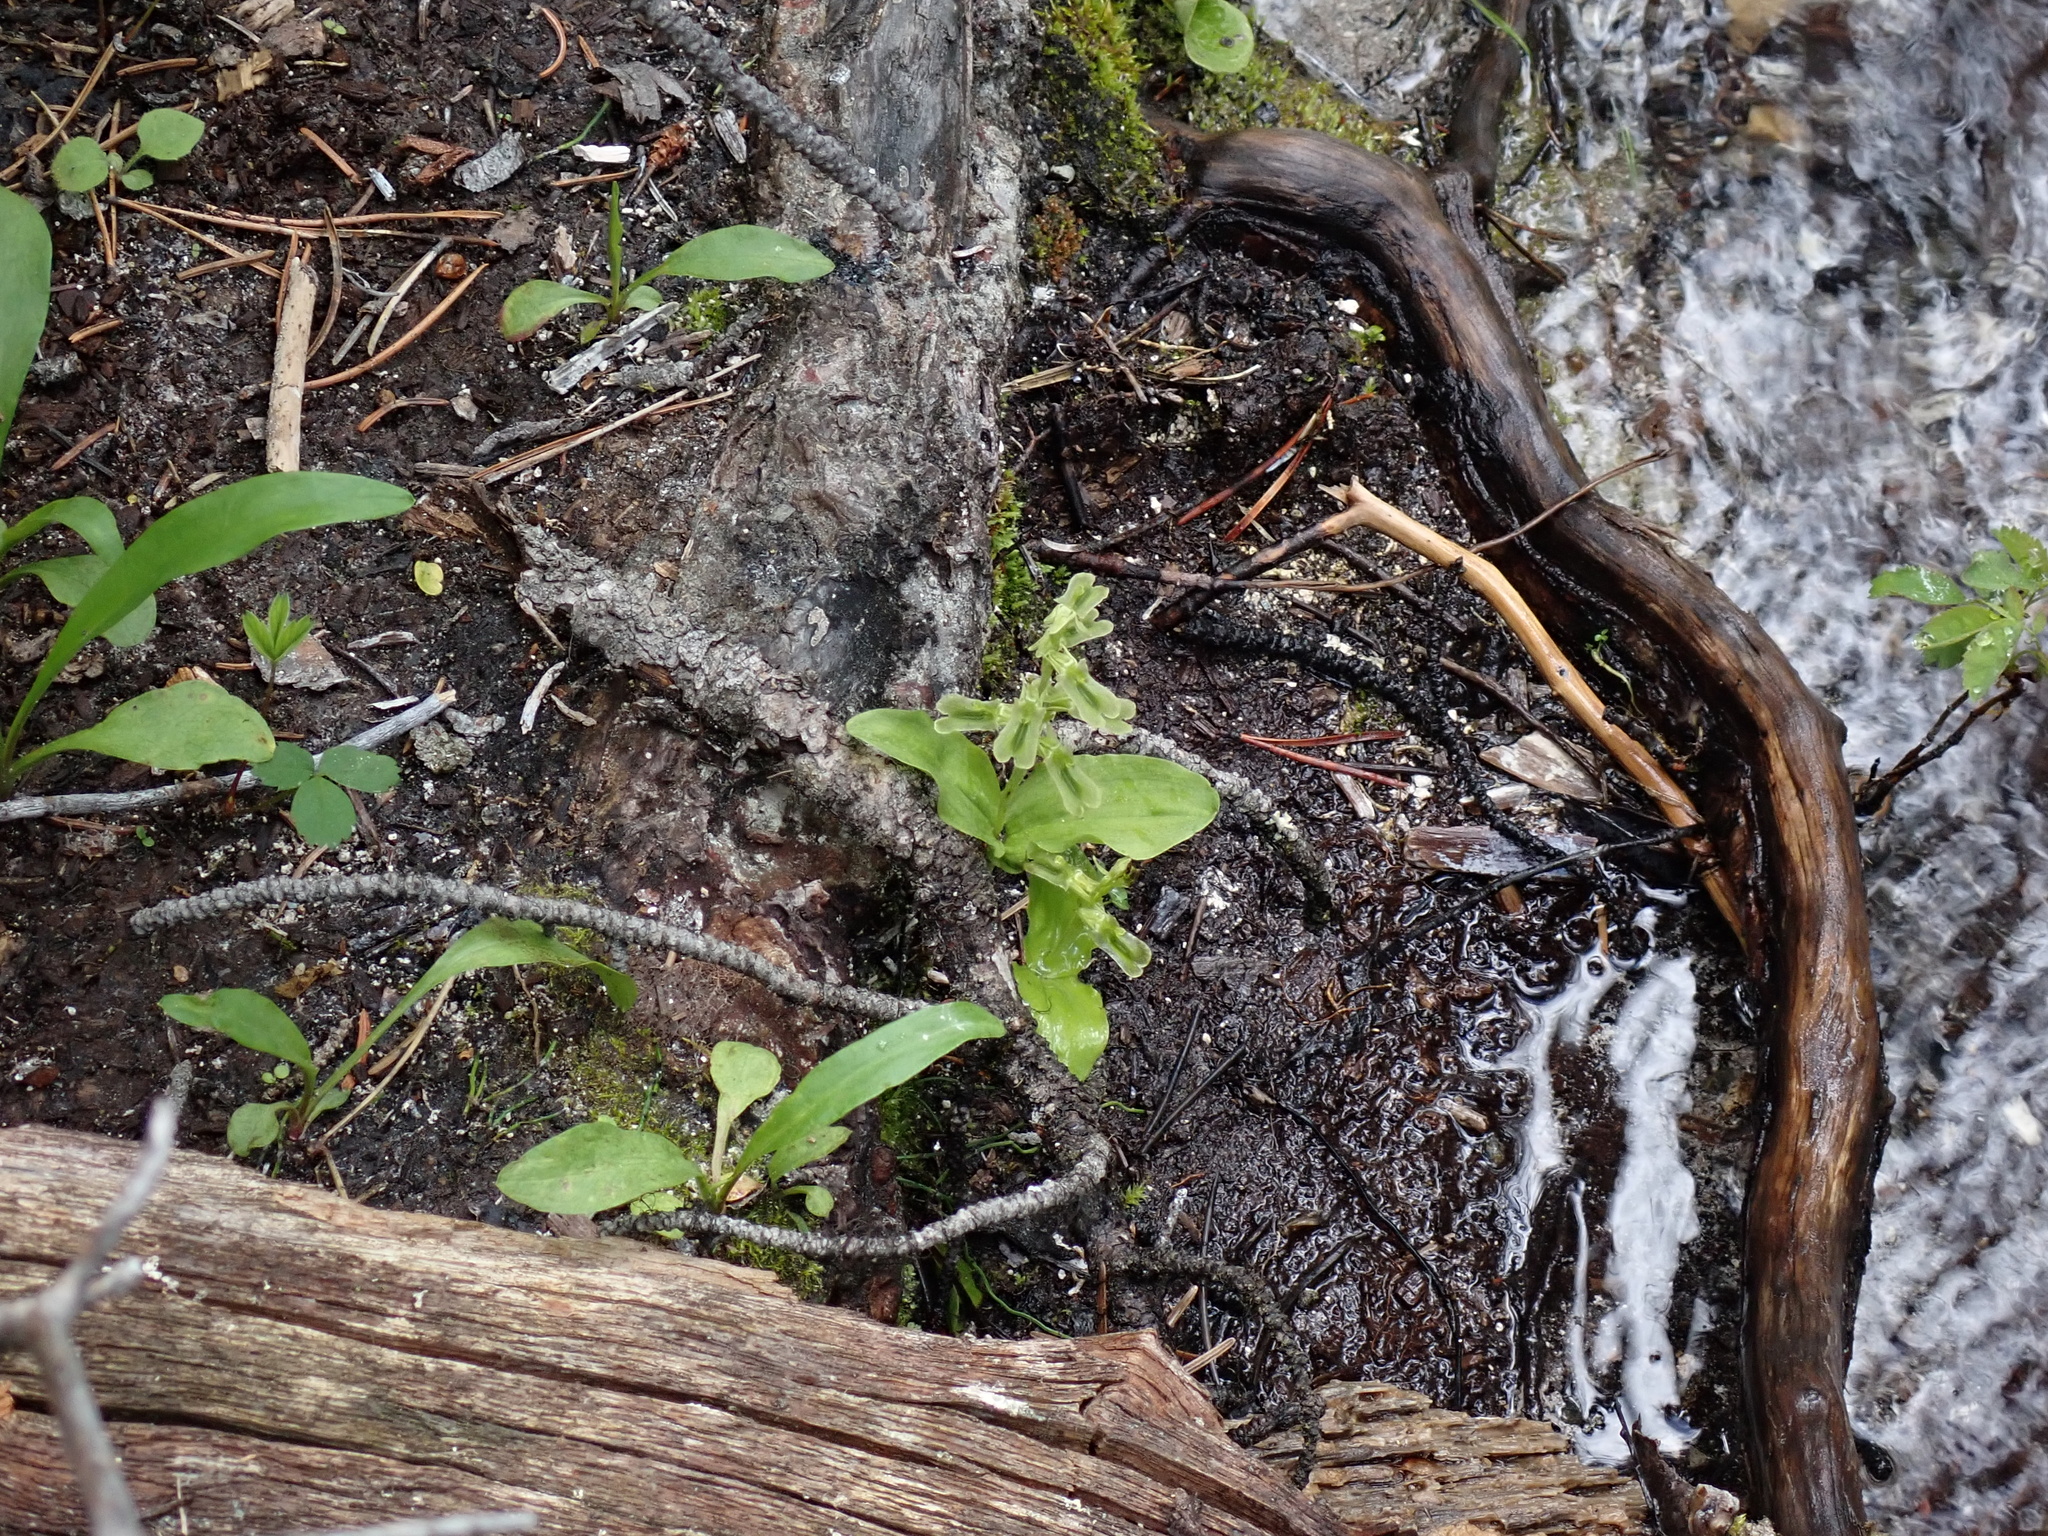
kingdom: Plantae
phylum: Tracheophyta
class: Liliopsida
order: Asparagales
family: Orchidaceae
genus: Neottia
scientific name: Neottia borealis
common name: Northern twayblade
